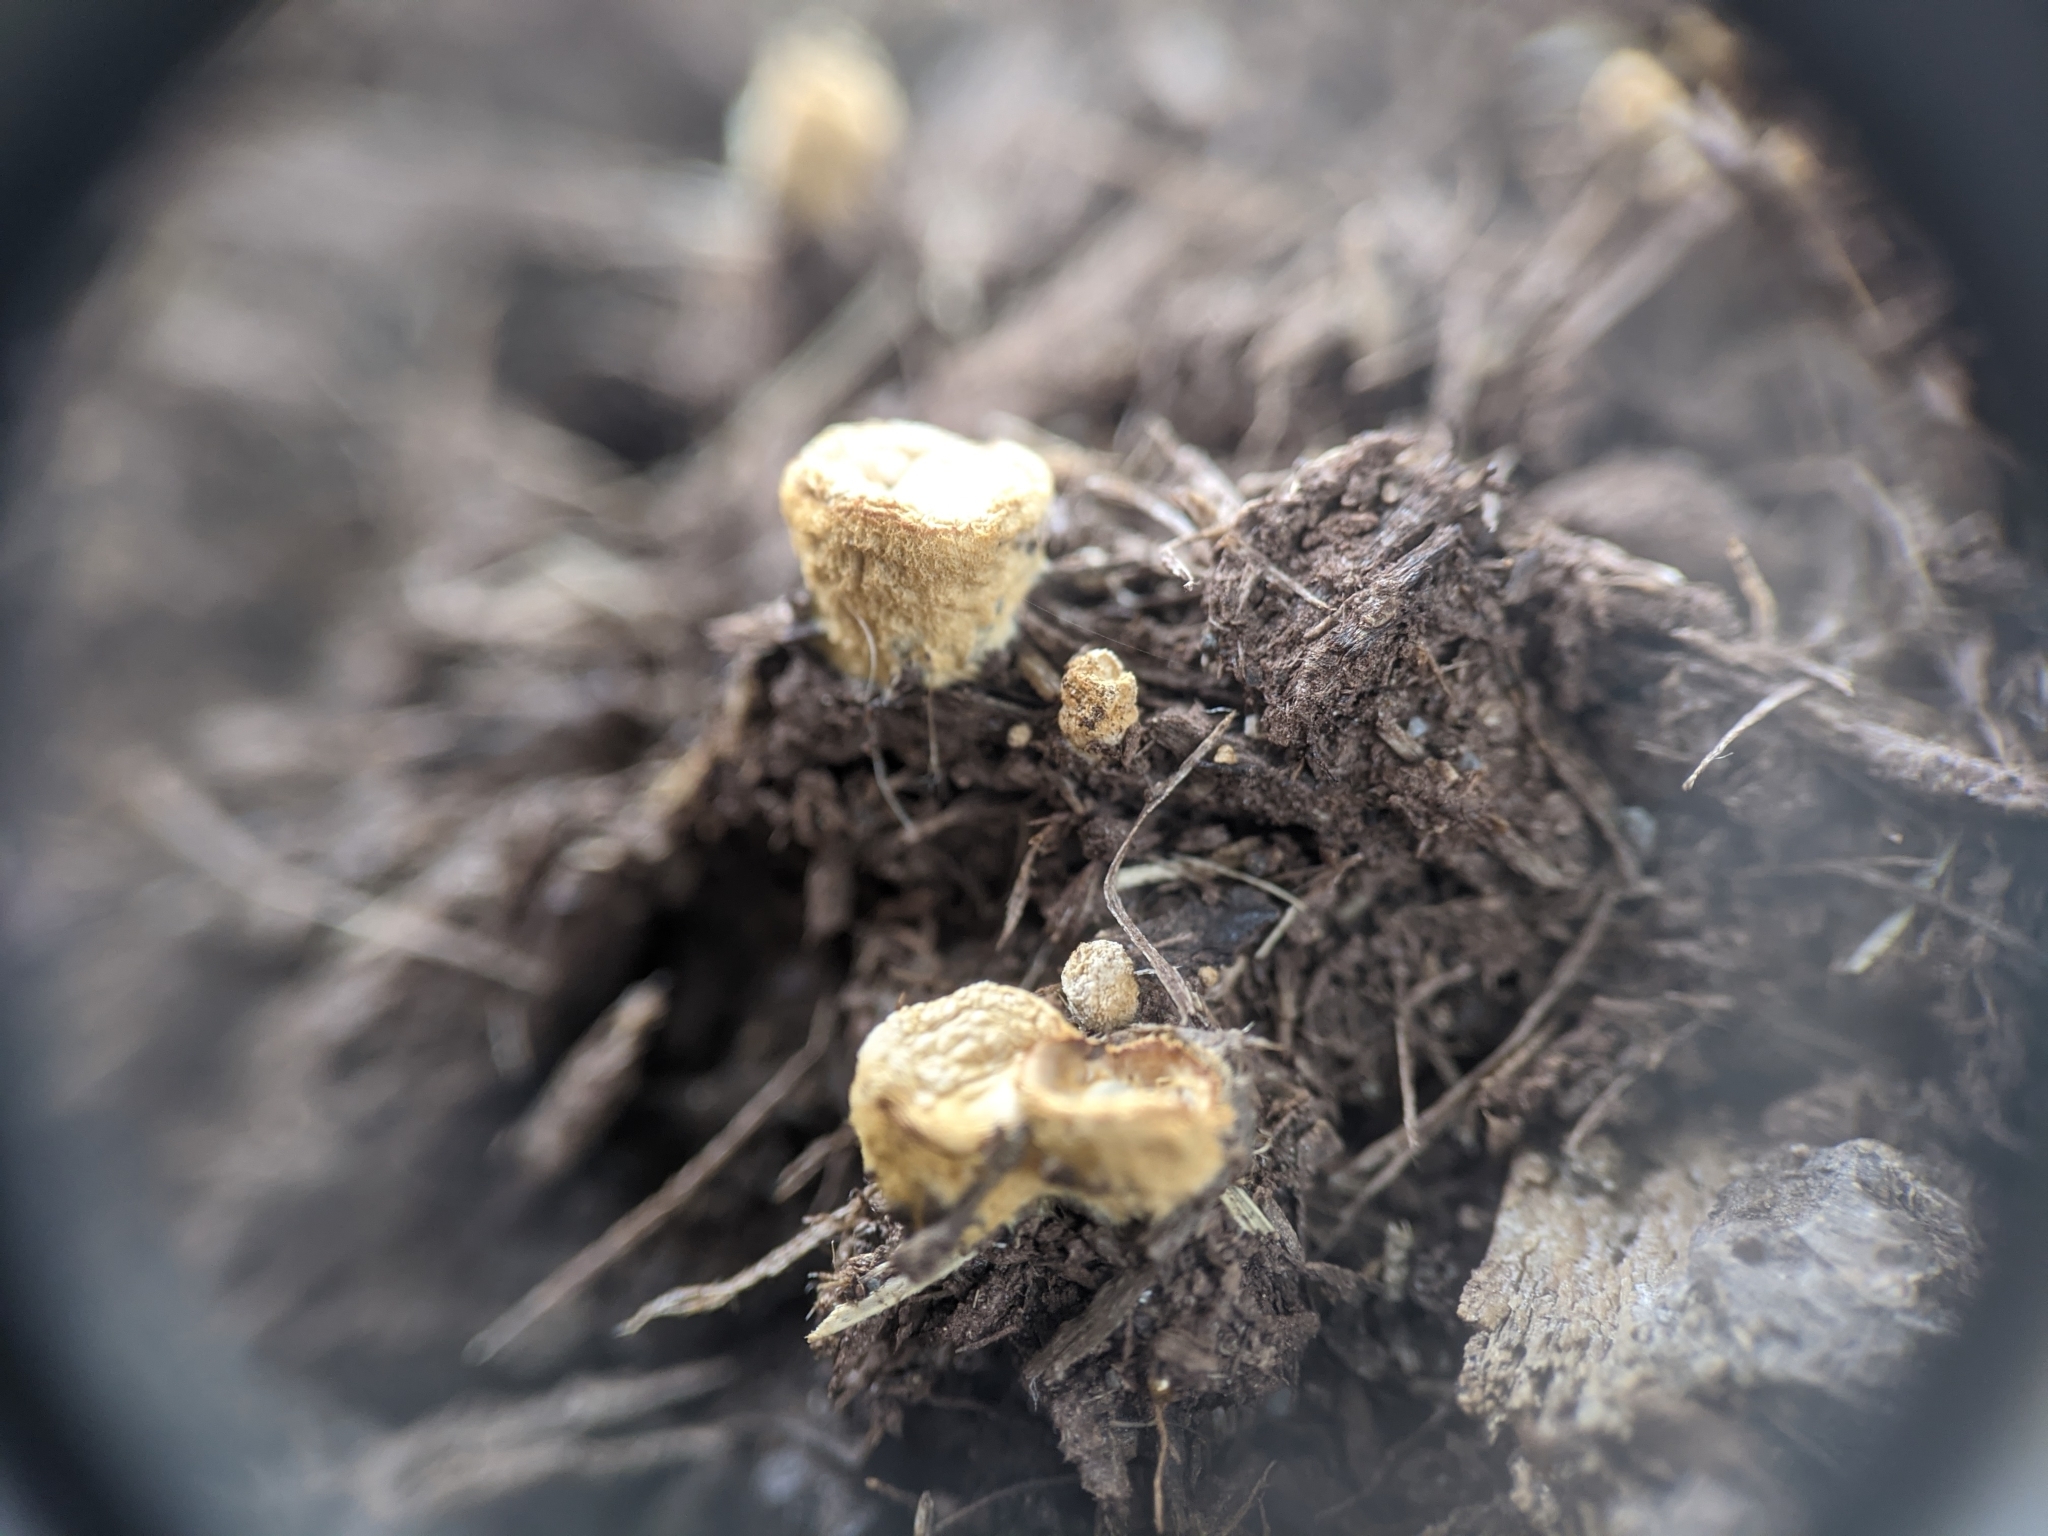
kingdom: Fungi
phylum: Basidiomycota
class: Agaricomycetes
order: Agaricales
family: Nidulariaceae
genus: Crucibulum
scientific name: Crucibulum laeve
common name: Common bird's nest
